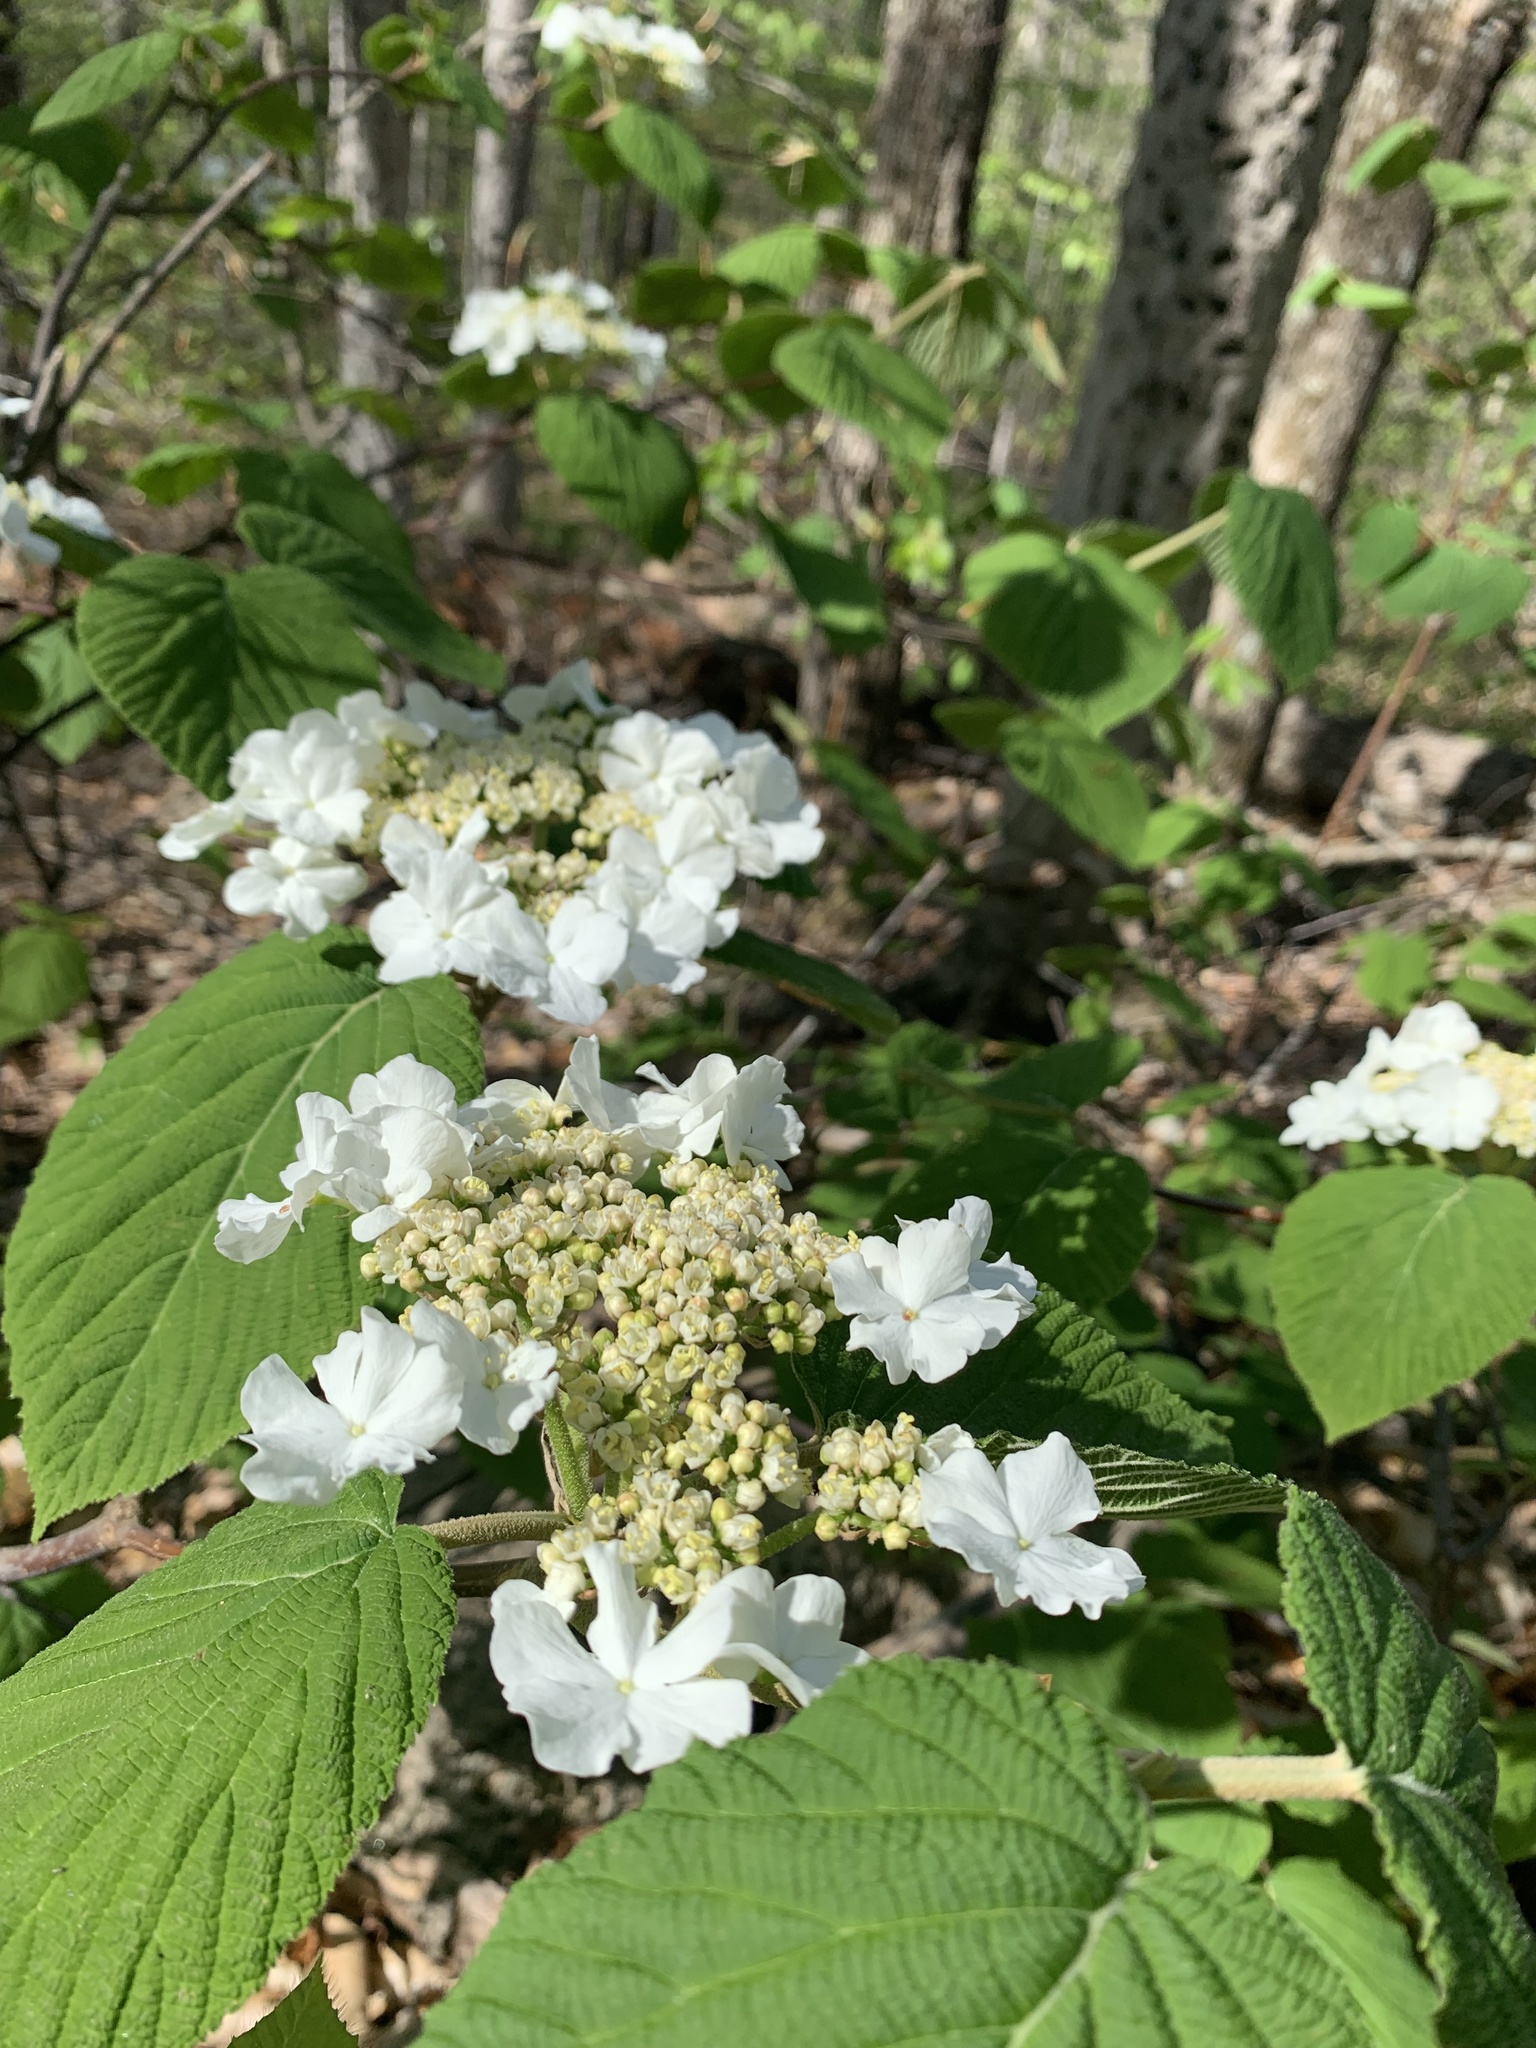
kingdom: Plantae
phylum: Tracheophyta
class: Magnoliopsida
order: Dipsacales
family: Viburnaceae
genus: Viburnum
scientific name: Viburnum lantanoides
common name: Hobblebush
